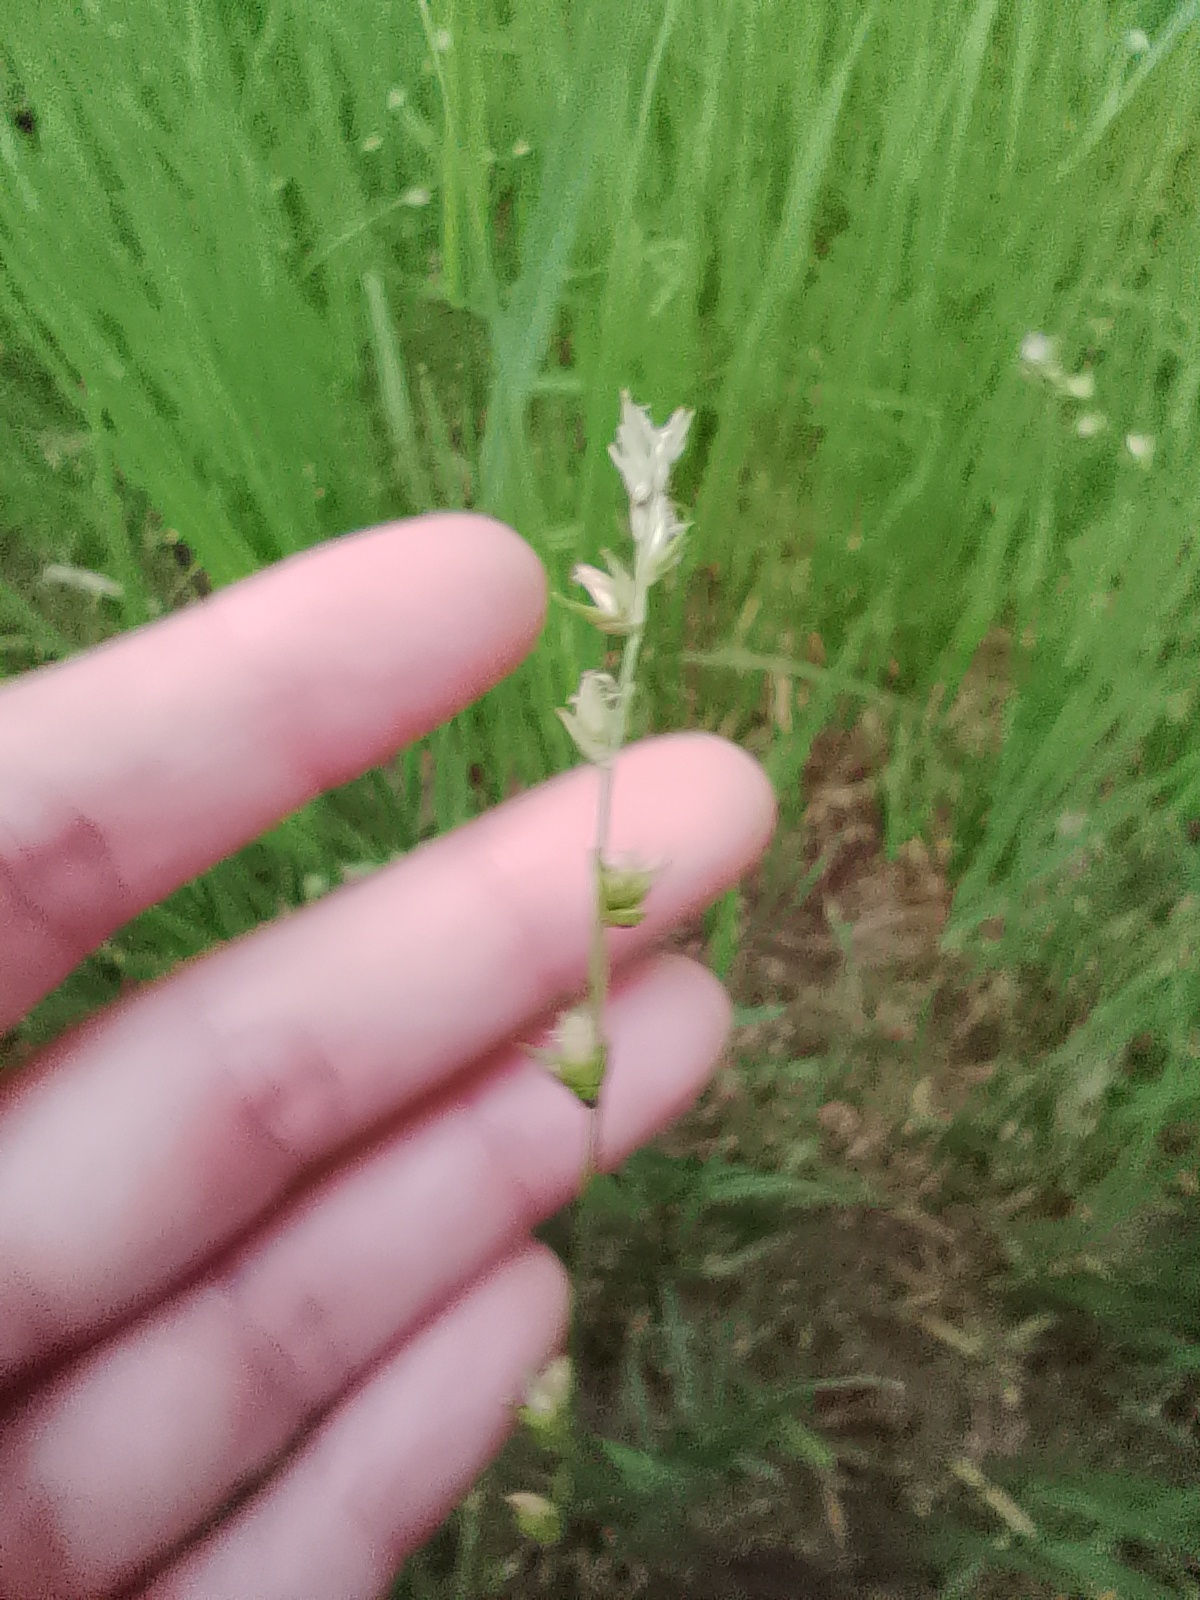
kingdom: Plantae
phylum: Tracheophyta
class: Liliopsida
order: Poales
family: Cyperaceae
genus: Carex
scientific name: Carex divulsa
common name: Grassland sedge
